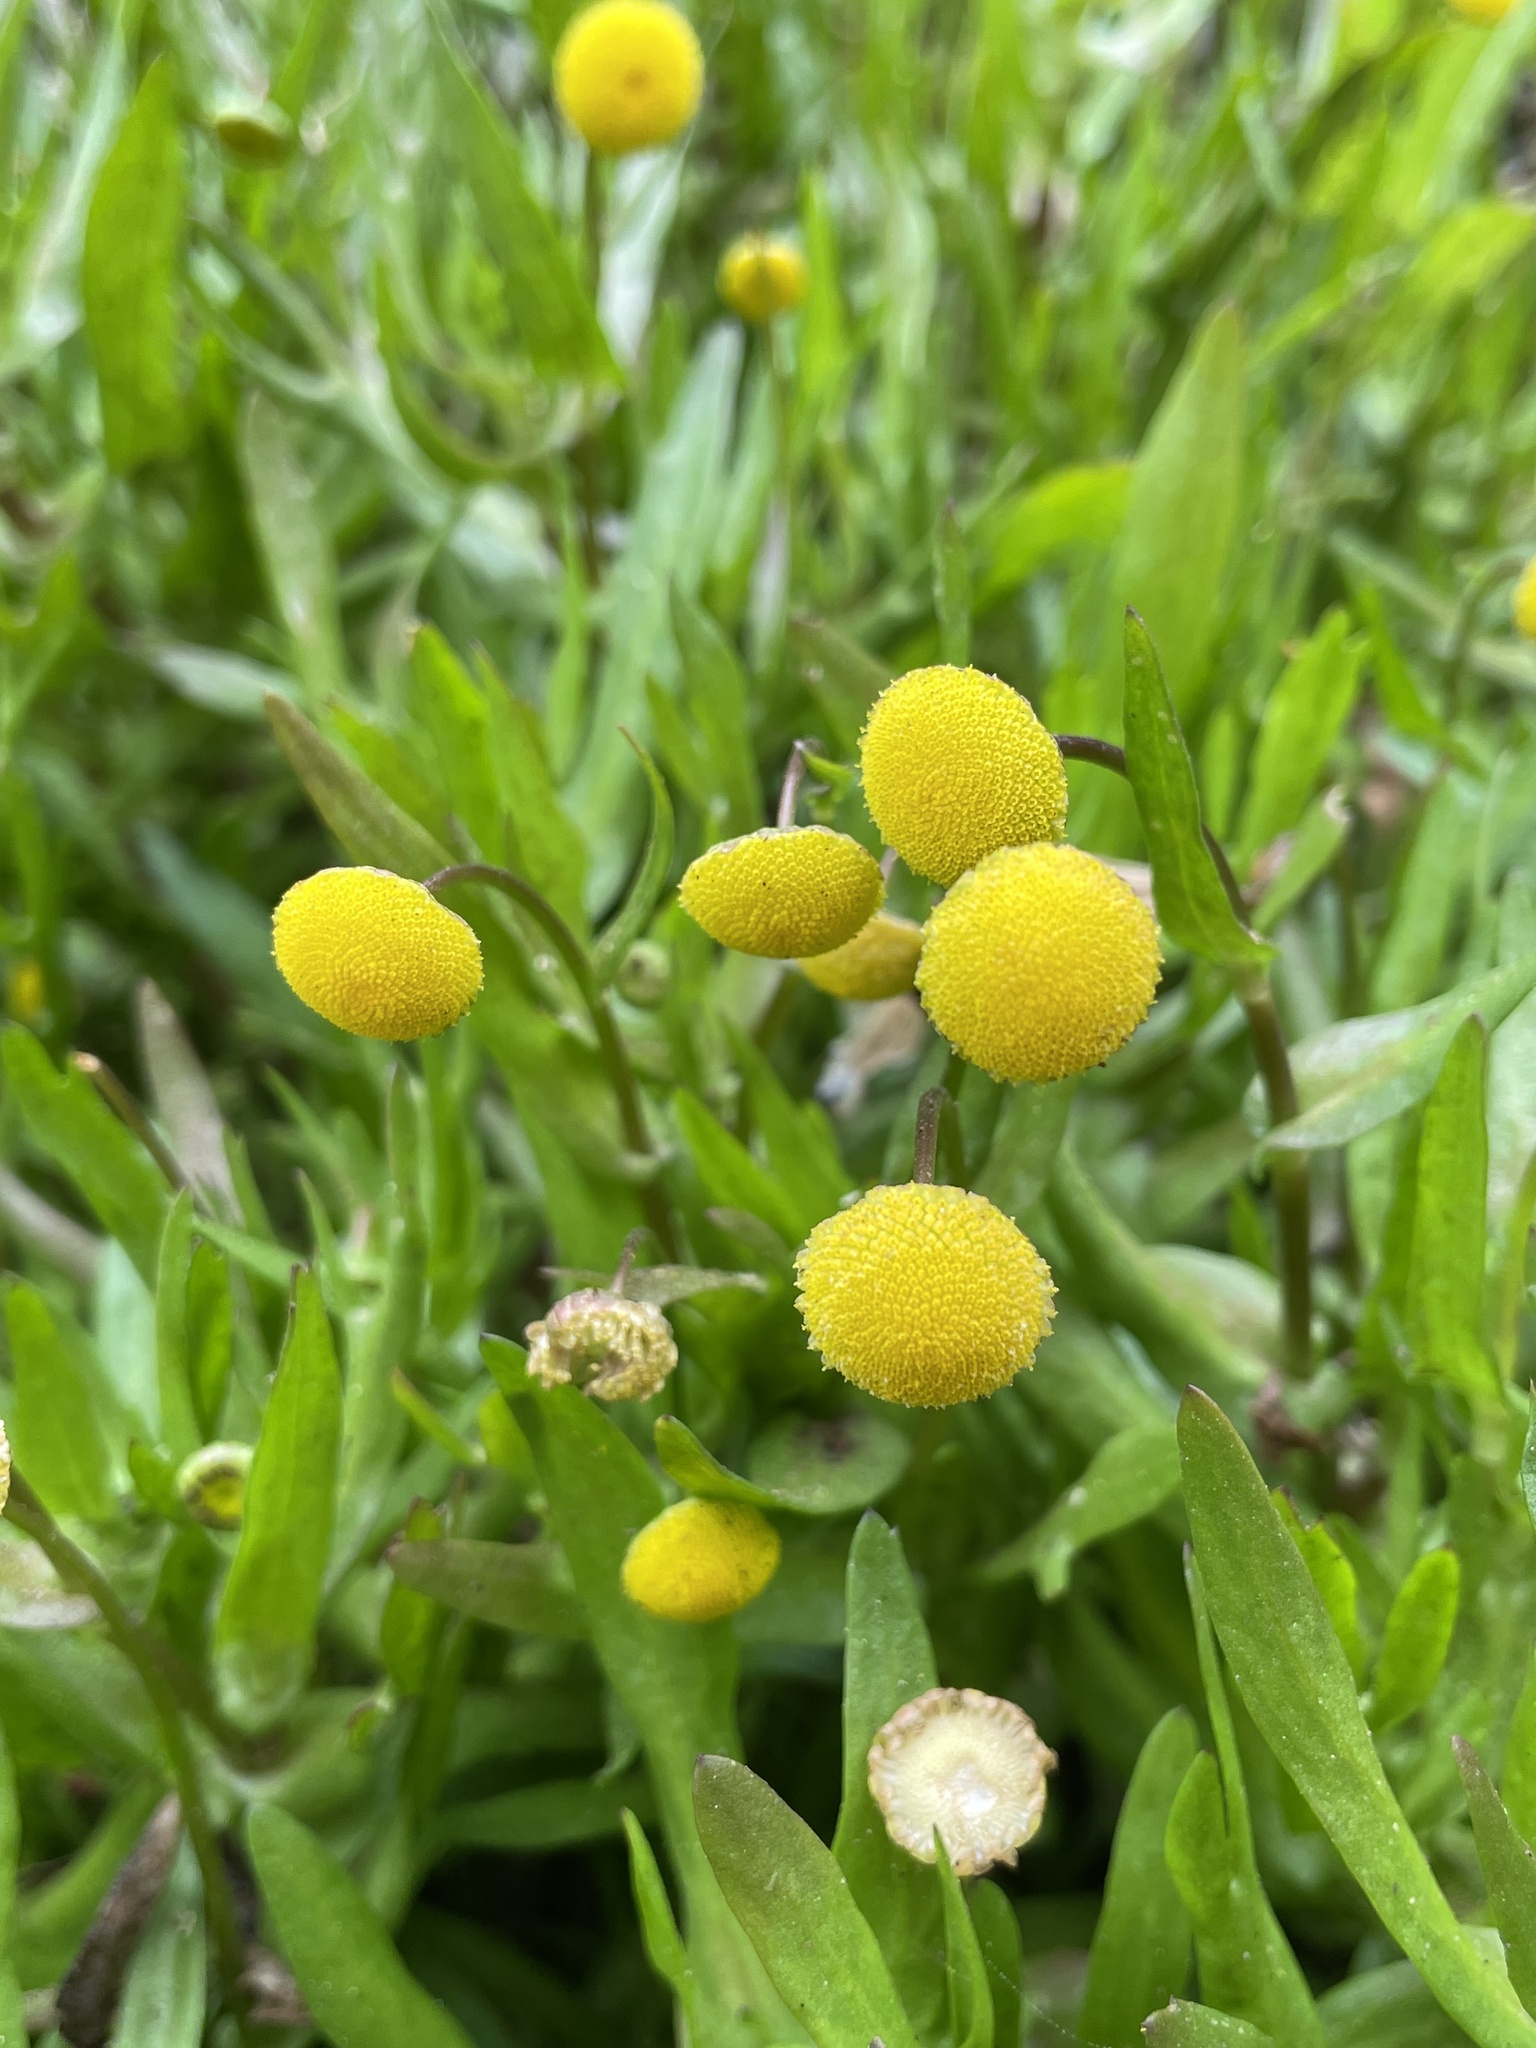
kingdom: Plantae
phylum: Tracheophyta
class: Magnoliopsida
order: Asterales
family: Asteraceae
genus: Cotula
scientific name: Cotula coronopifolia
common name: Buttonweed
